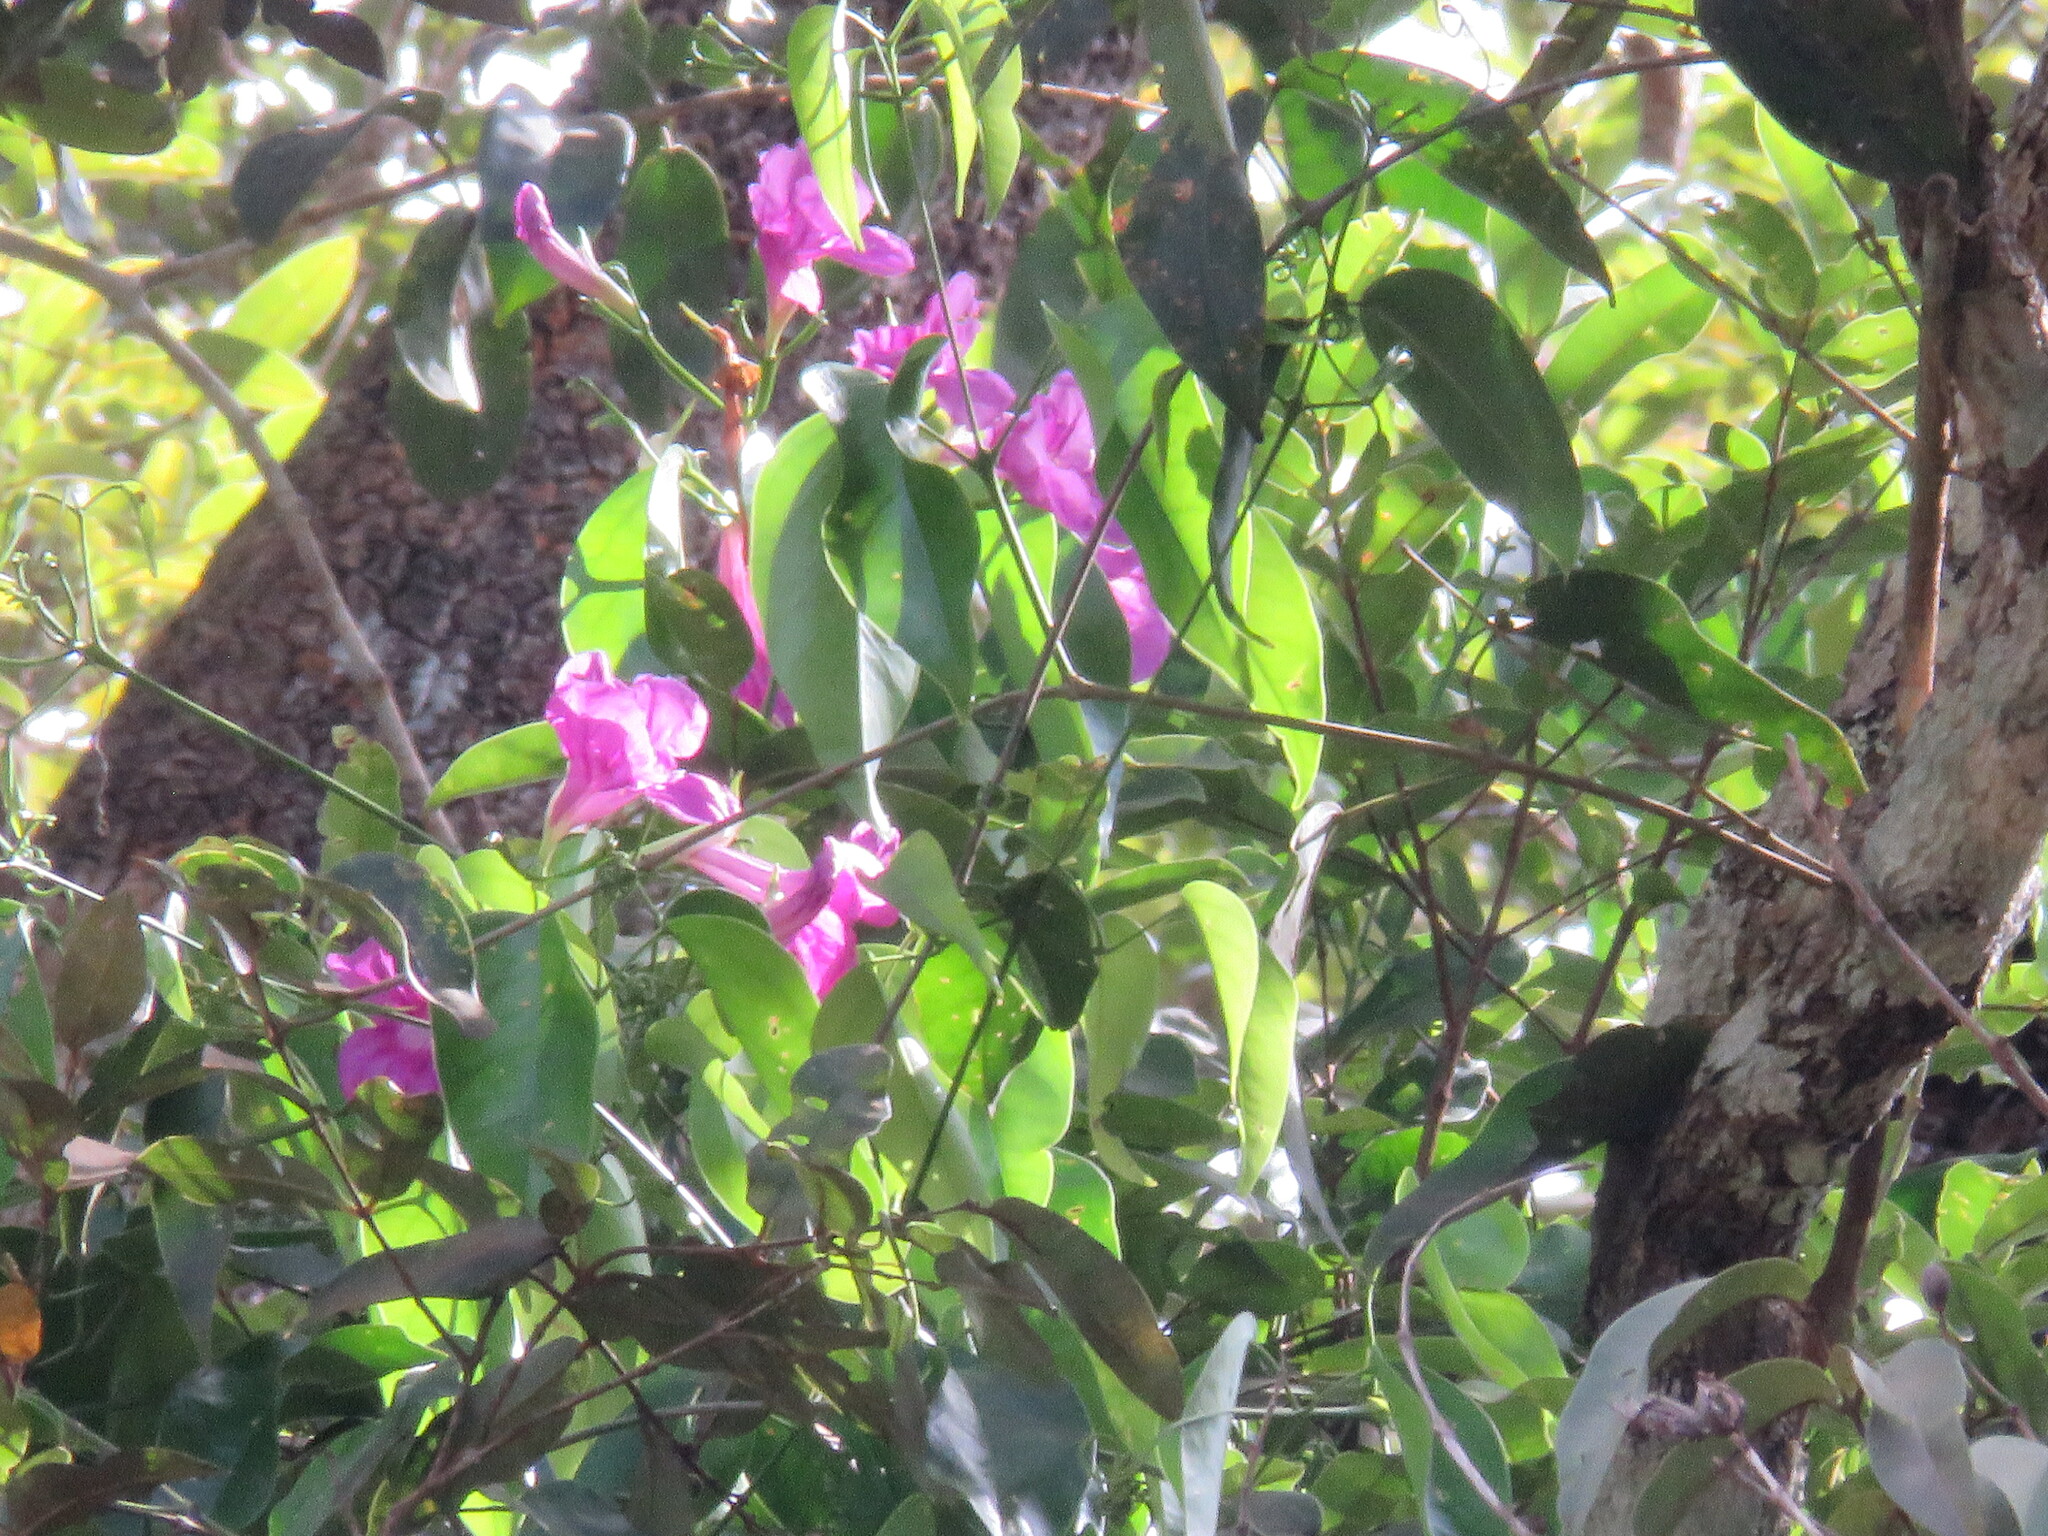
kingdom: Plantae
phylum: Tracheophyta
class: Magnoliopsida
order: Lamiales
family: Bignoniaceae
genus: Fridericia
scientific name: Fridericia schumanniana
